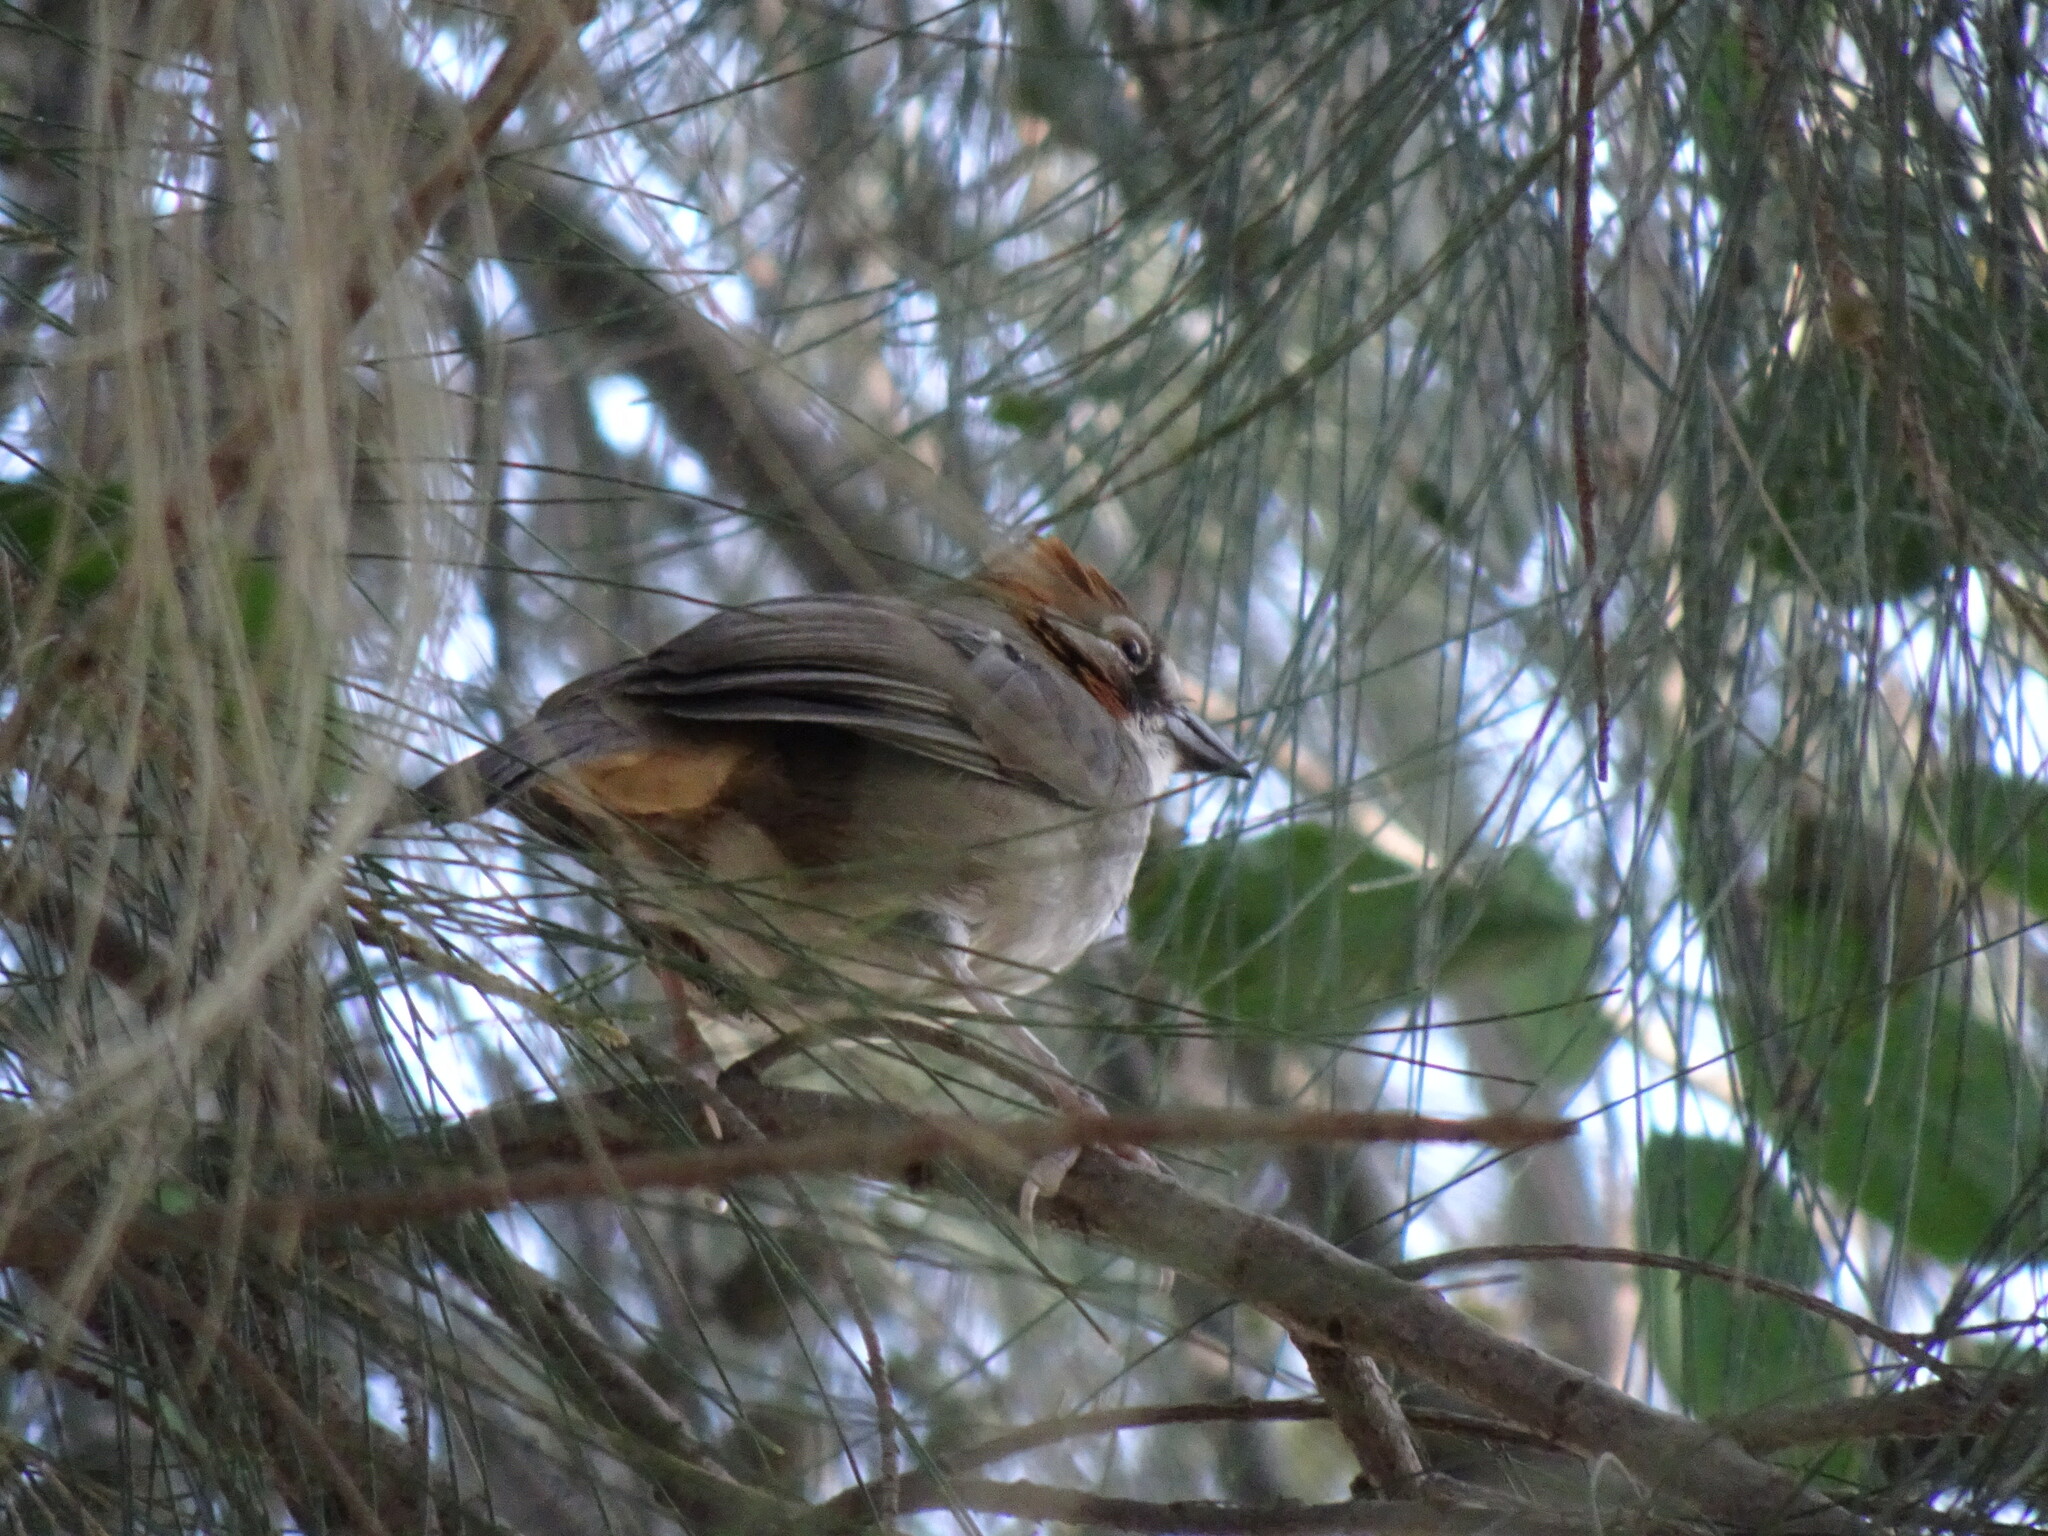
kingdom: Animalia
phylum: Chordata
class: Aves
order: Passeriformes
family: Passerellidae
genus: Melozone
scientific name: Melozone kieneri
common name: Rusty-crowned ground-sparrow
